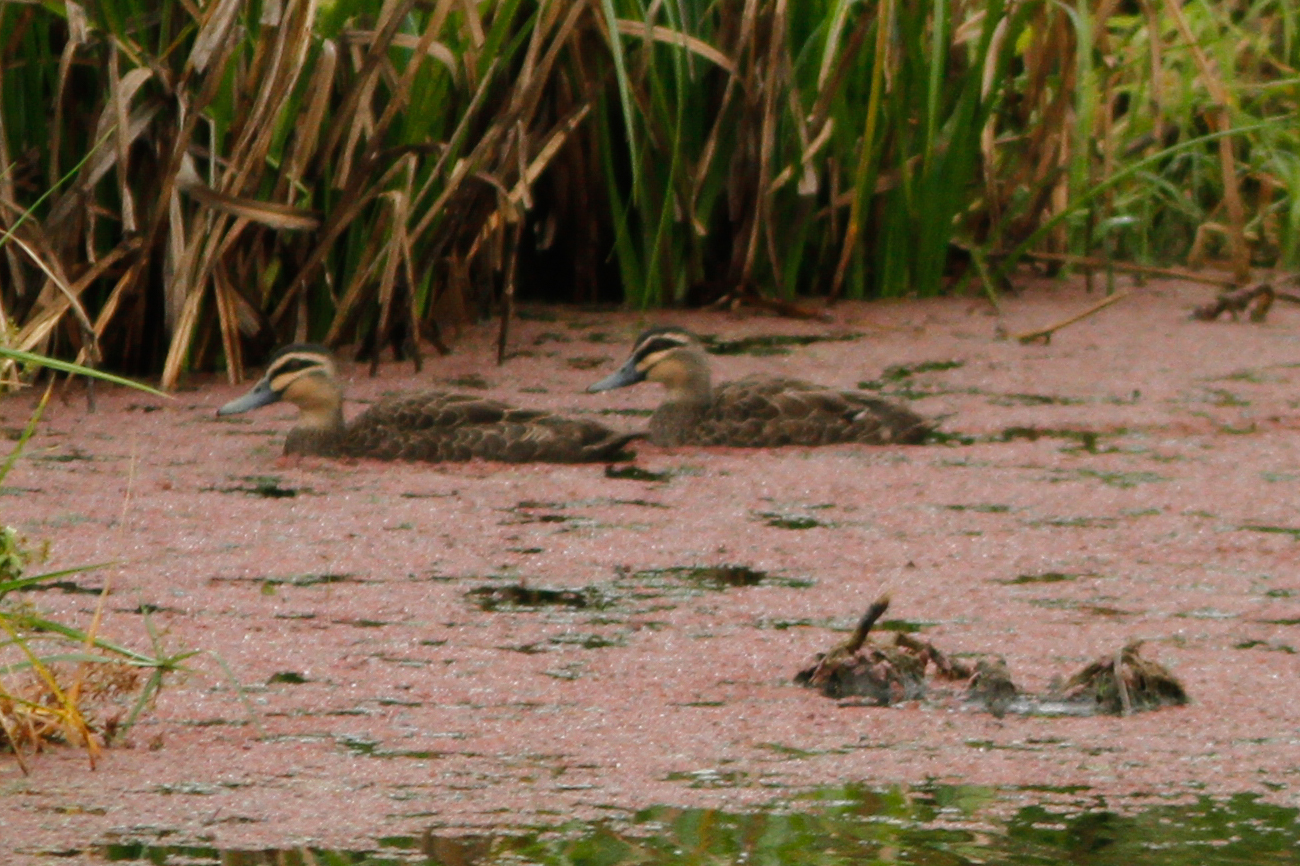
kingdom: Animalia
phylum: Chordata
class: Aves
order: Anseriformes
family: Anatidae
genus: Anas
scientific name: Anas superciliosa
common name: Pacific black duck
